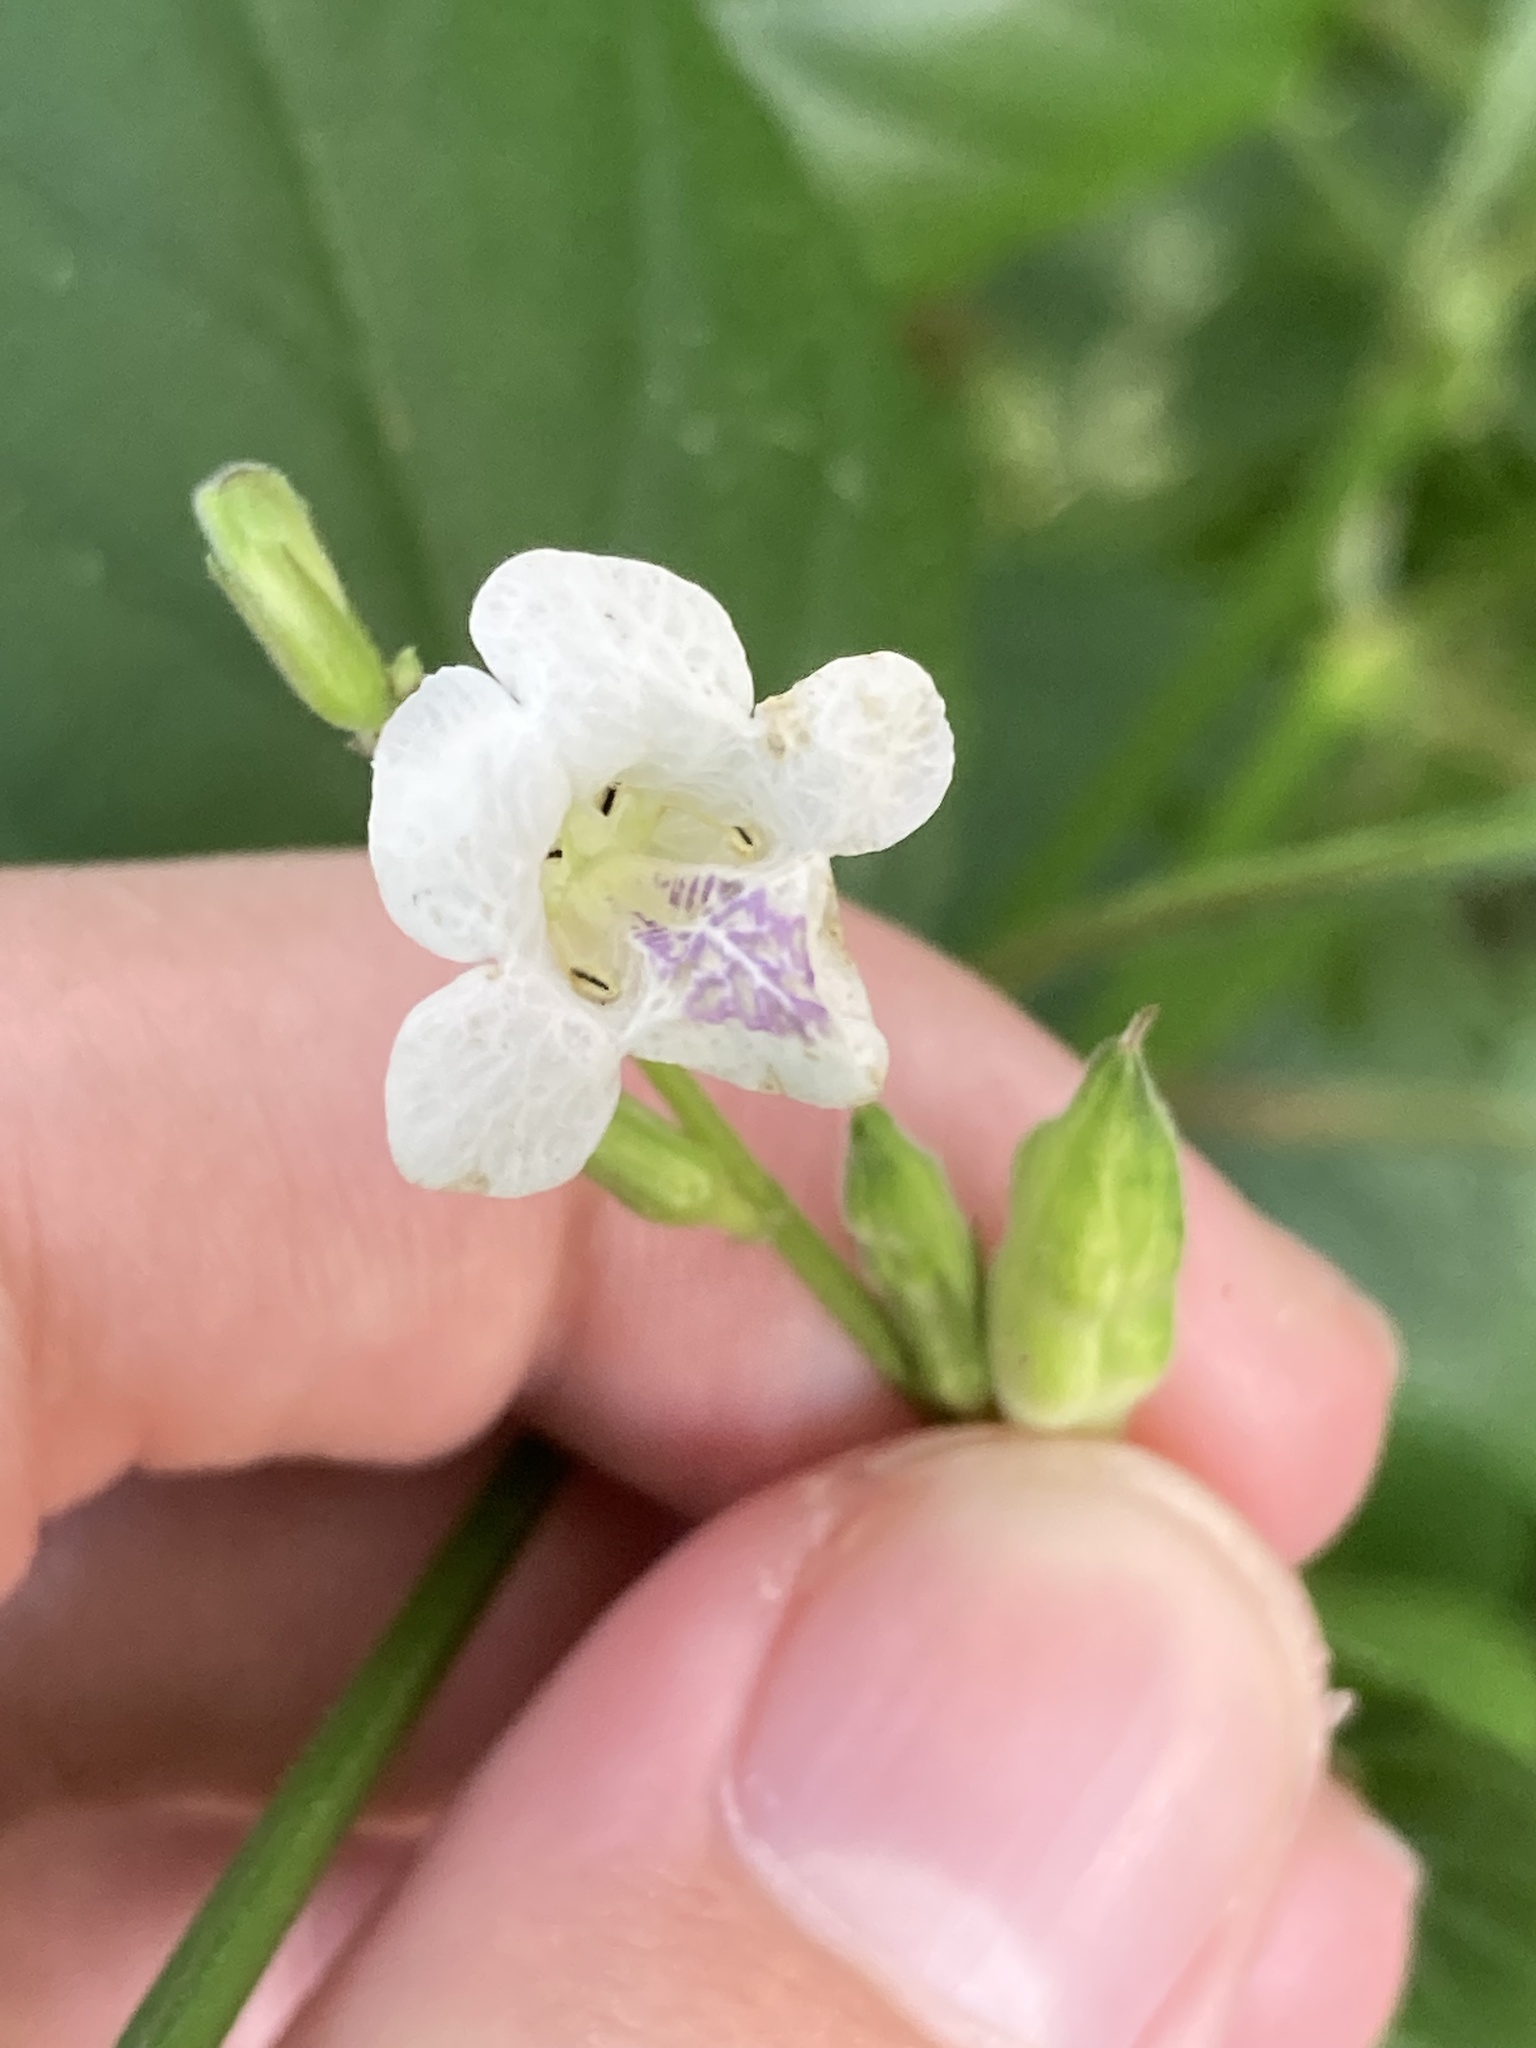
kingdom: Plantae
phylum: Tracheophyta
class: Magnoliopsida
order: Lamiales
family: Acanthaceae
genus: Asystasia
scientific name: Asystasia intrusa
